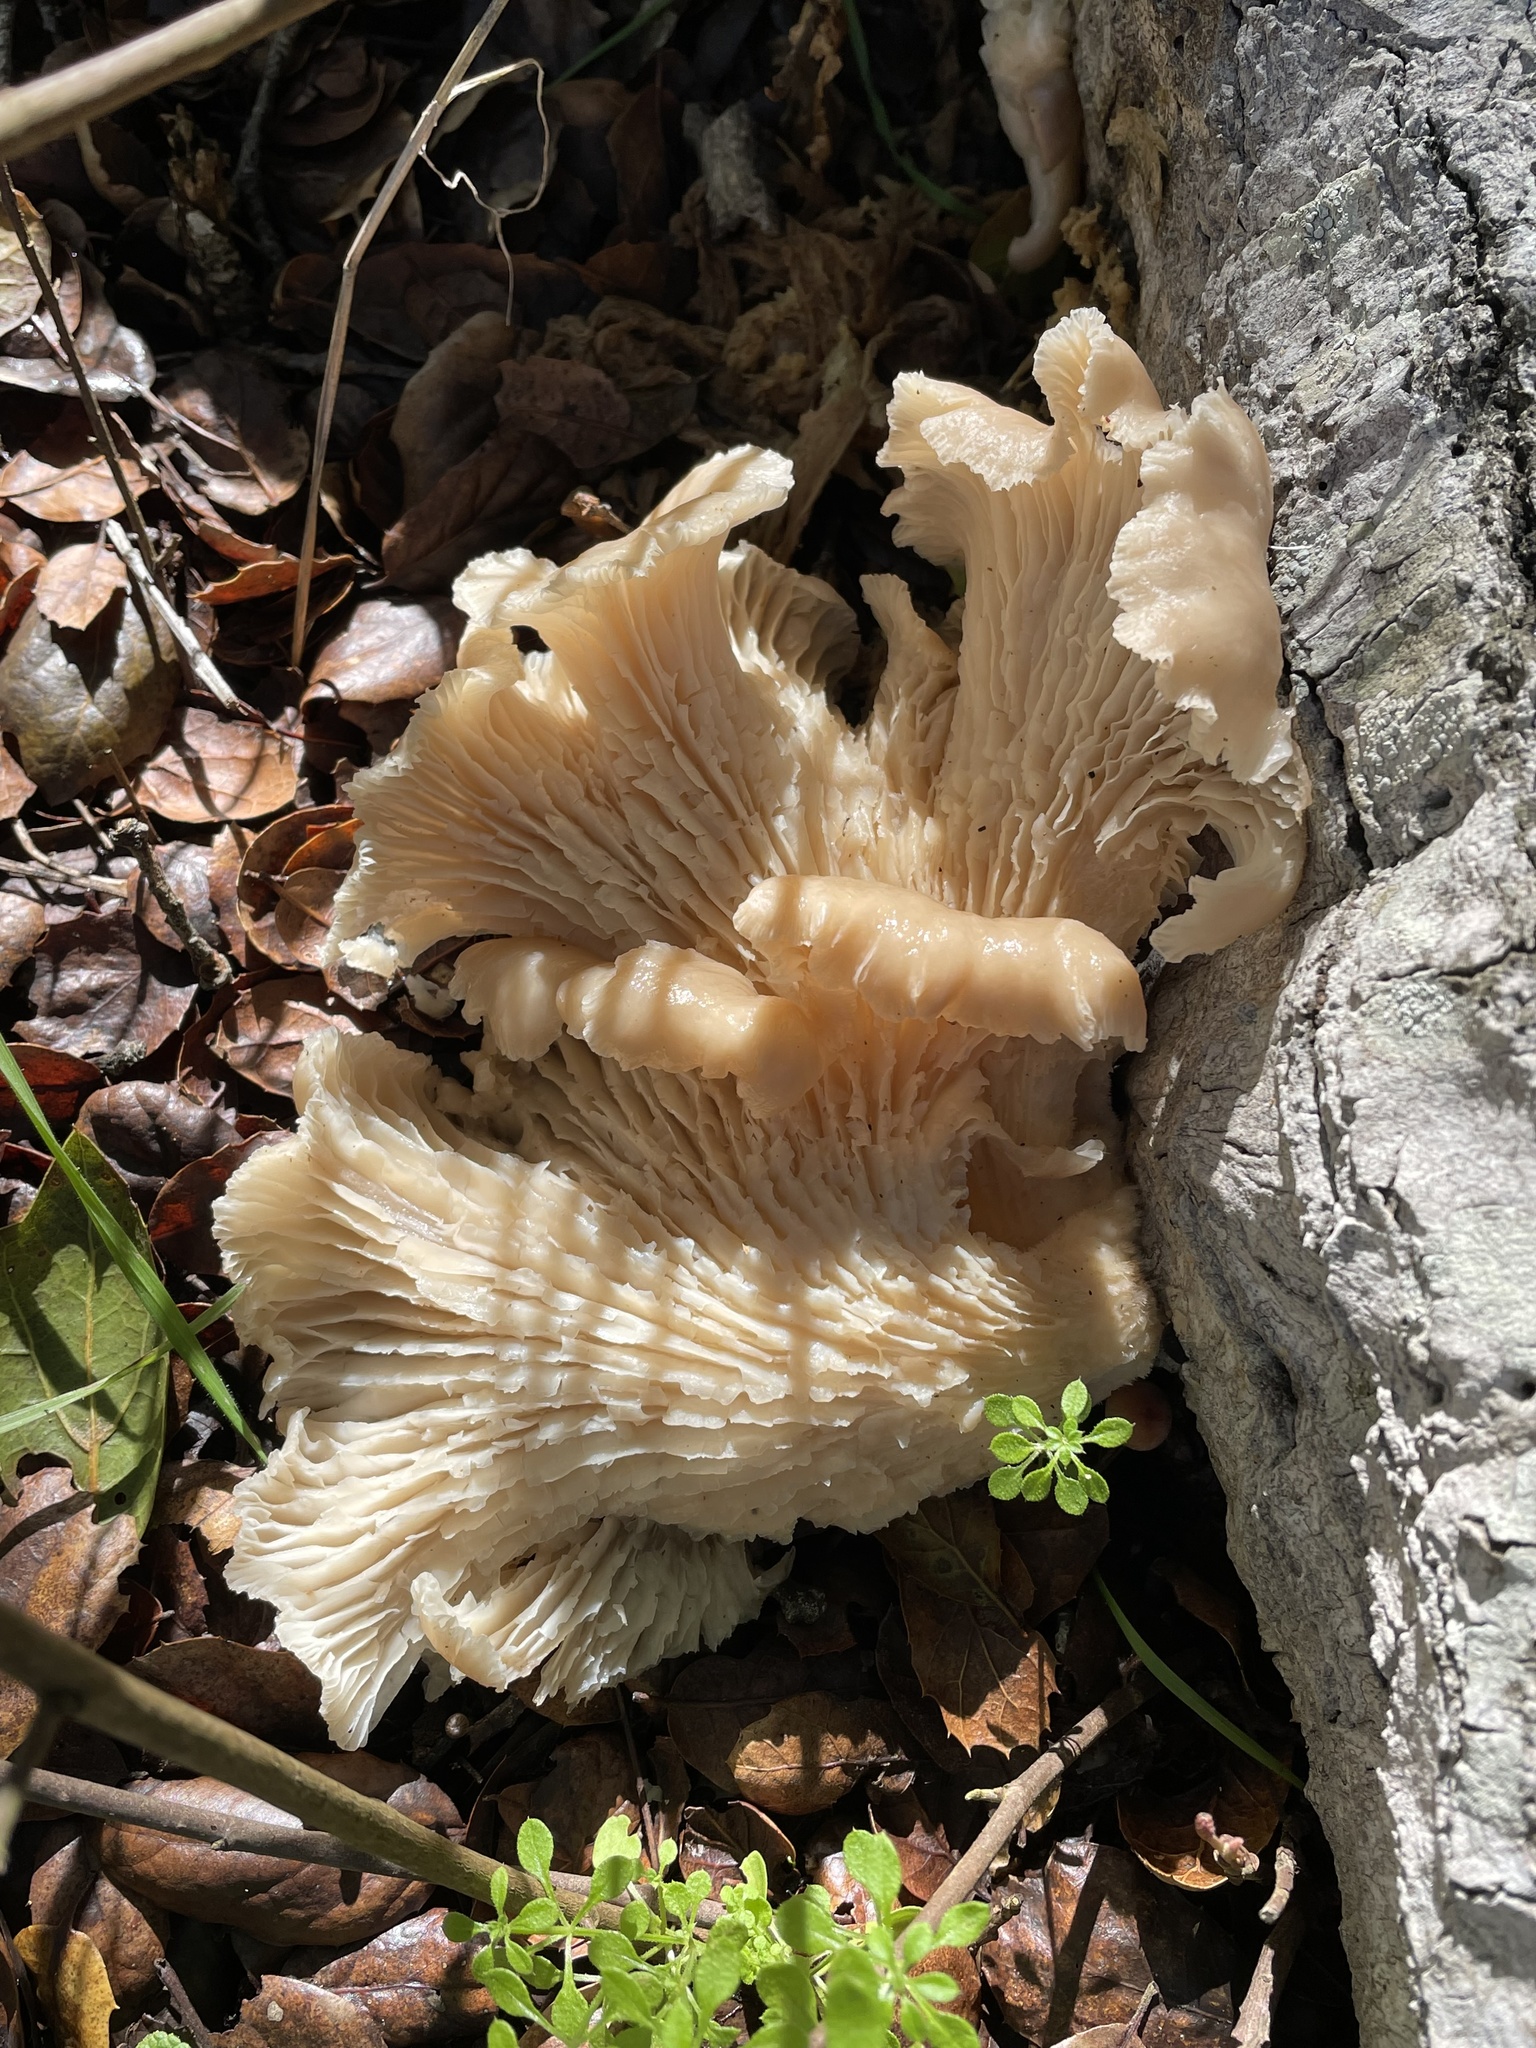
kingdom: Fungi
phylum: Basidiomycota
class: Agaricomycetes
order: Agaricales
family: Pleurotaceae
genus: Pleurotus
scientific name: Pleurotus ostreatus
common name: Oyster mushroom
